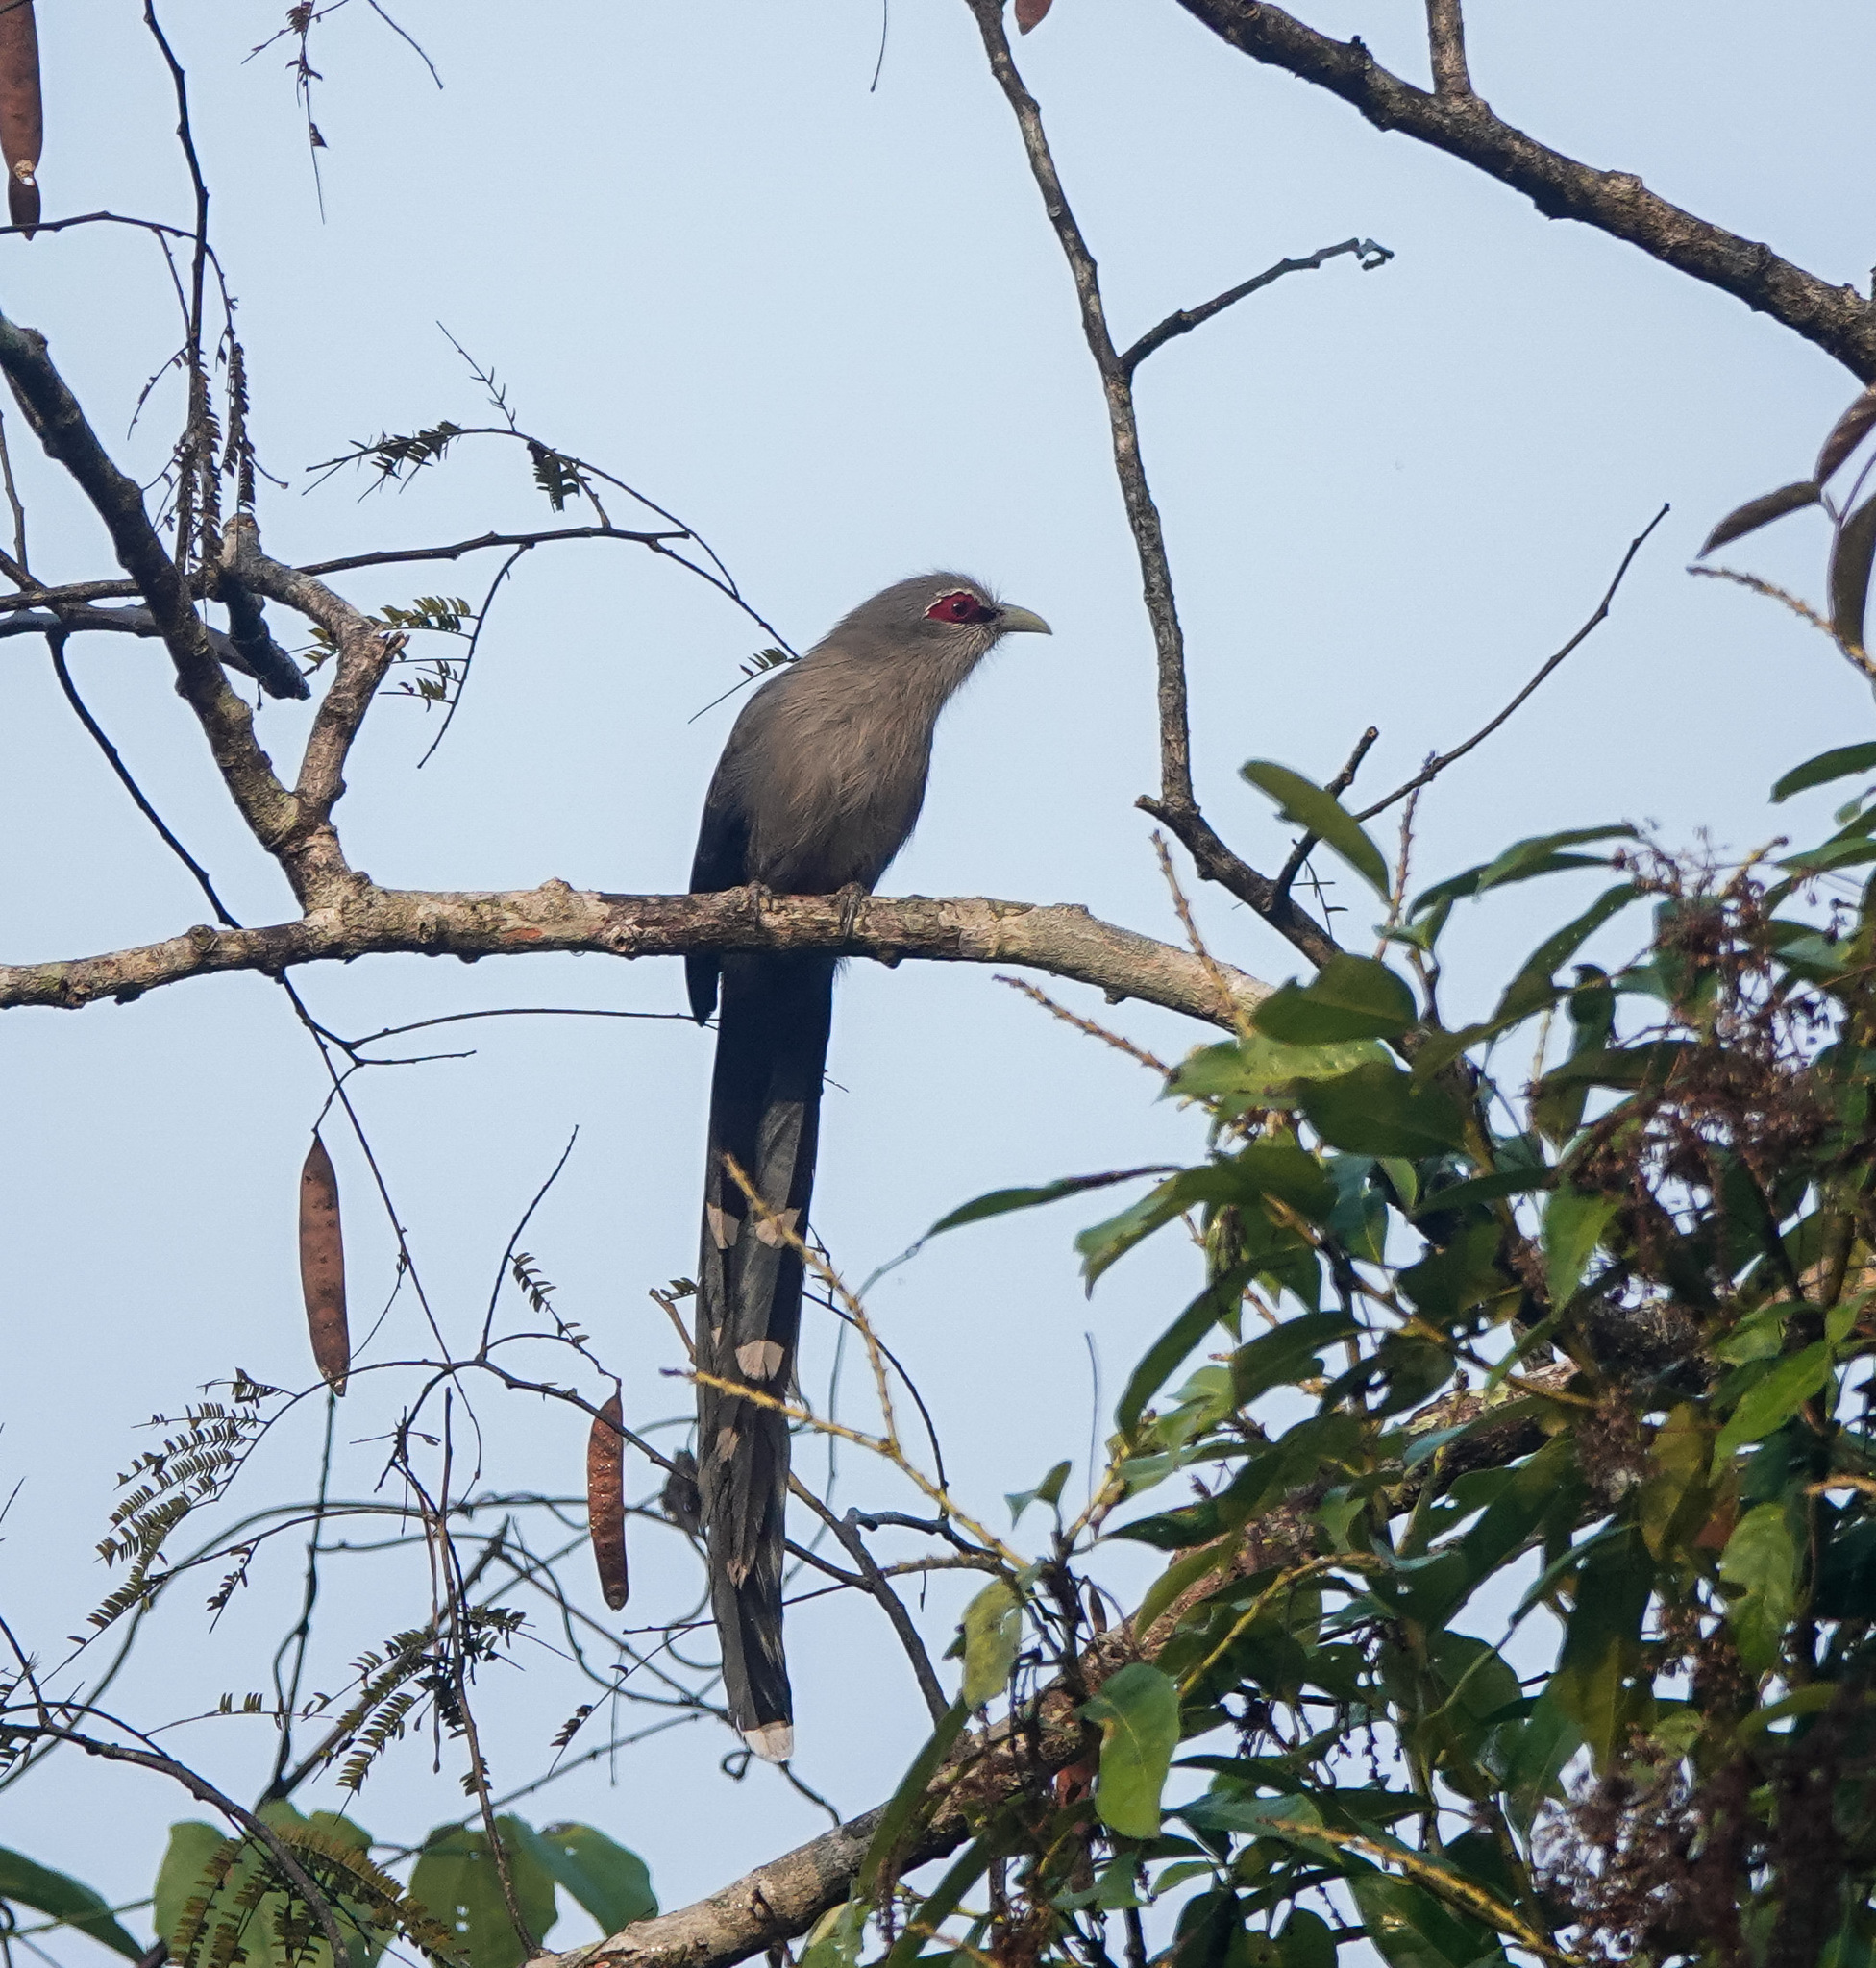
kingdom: Animalia
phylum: Chordata
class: Aves
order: Cuculiformes
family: Cuculidae
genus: Rhopodytes
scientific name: Rhopodytes tristis
